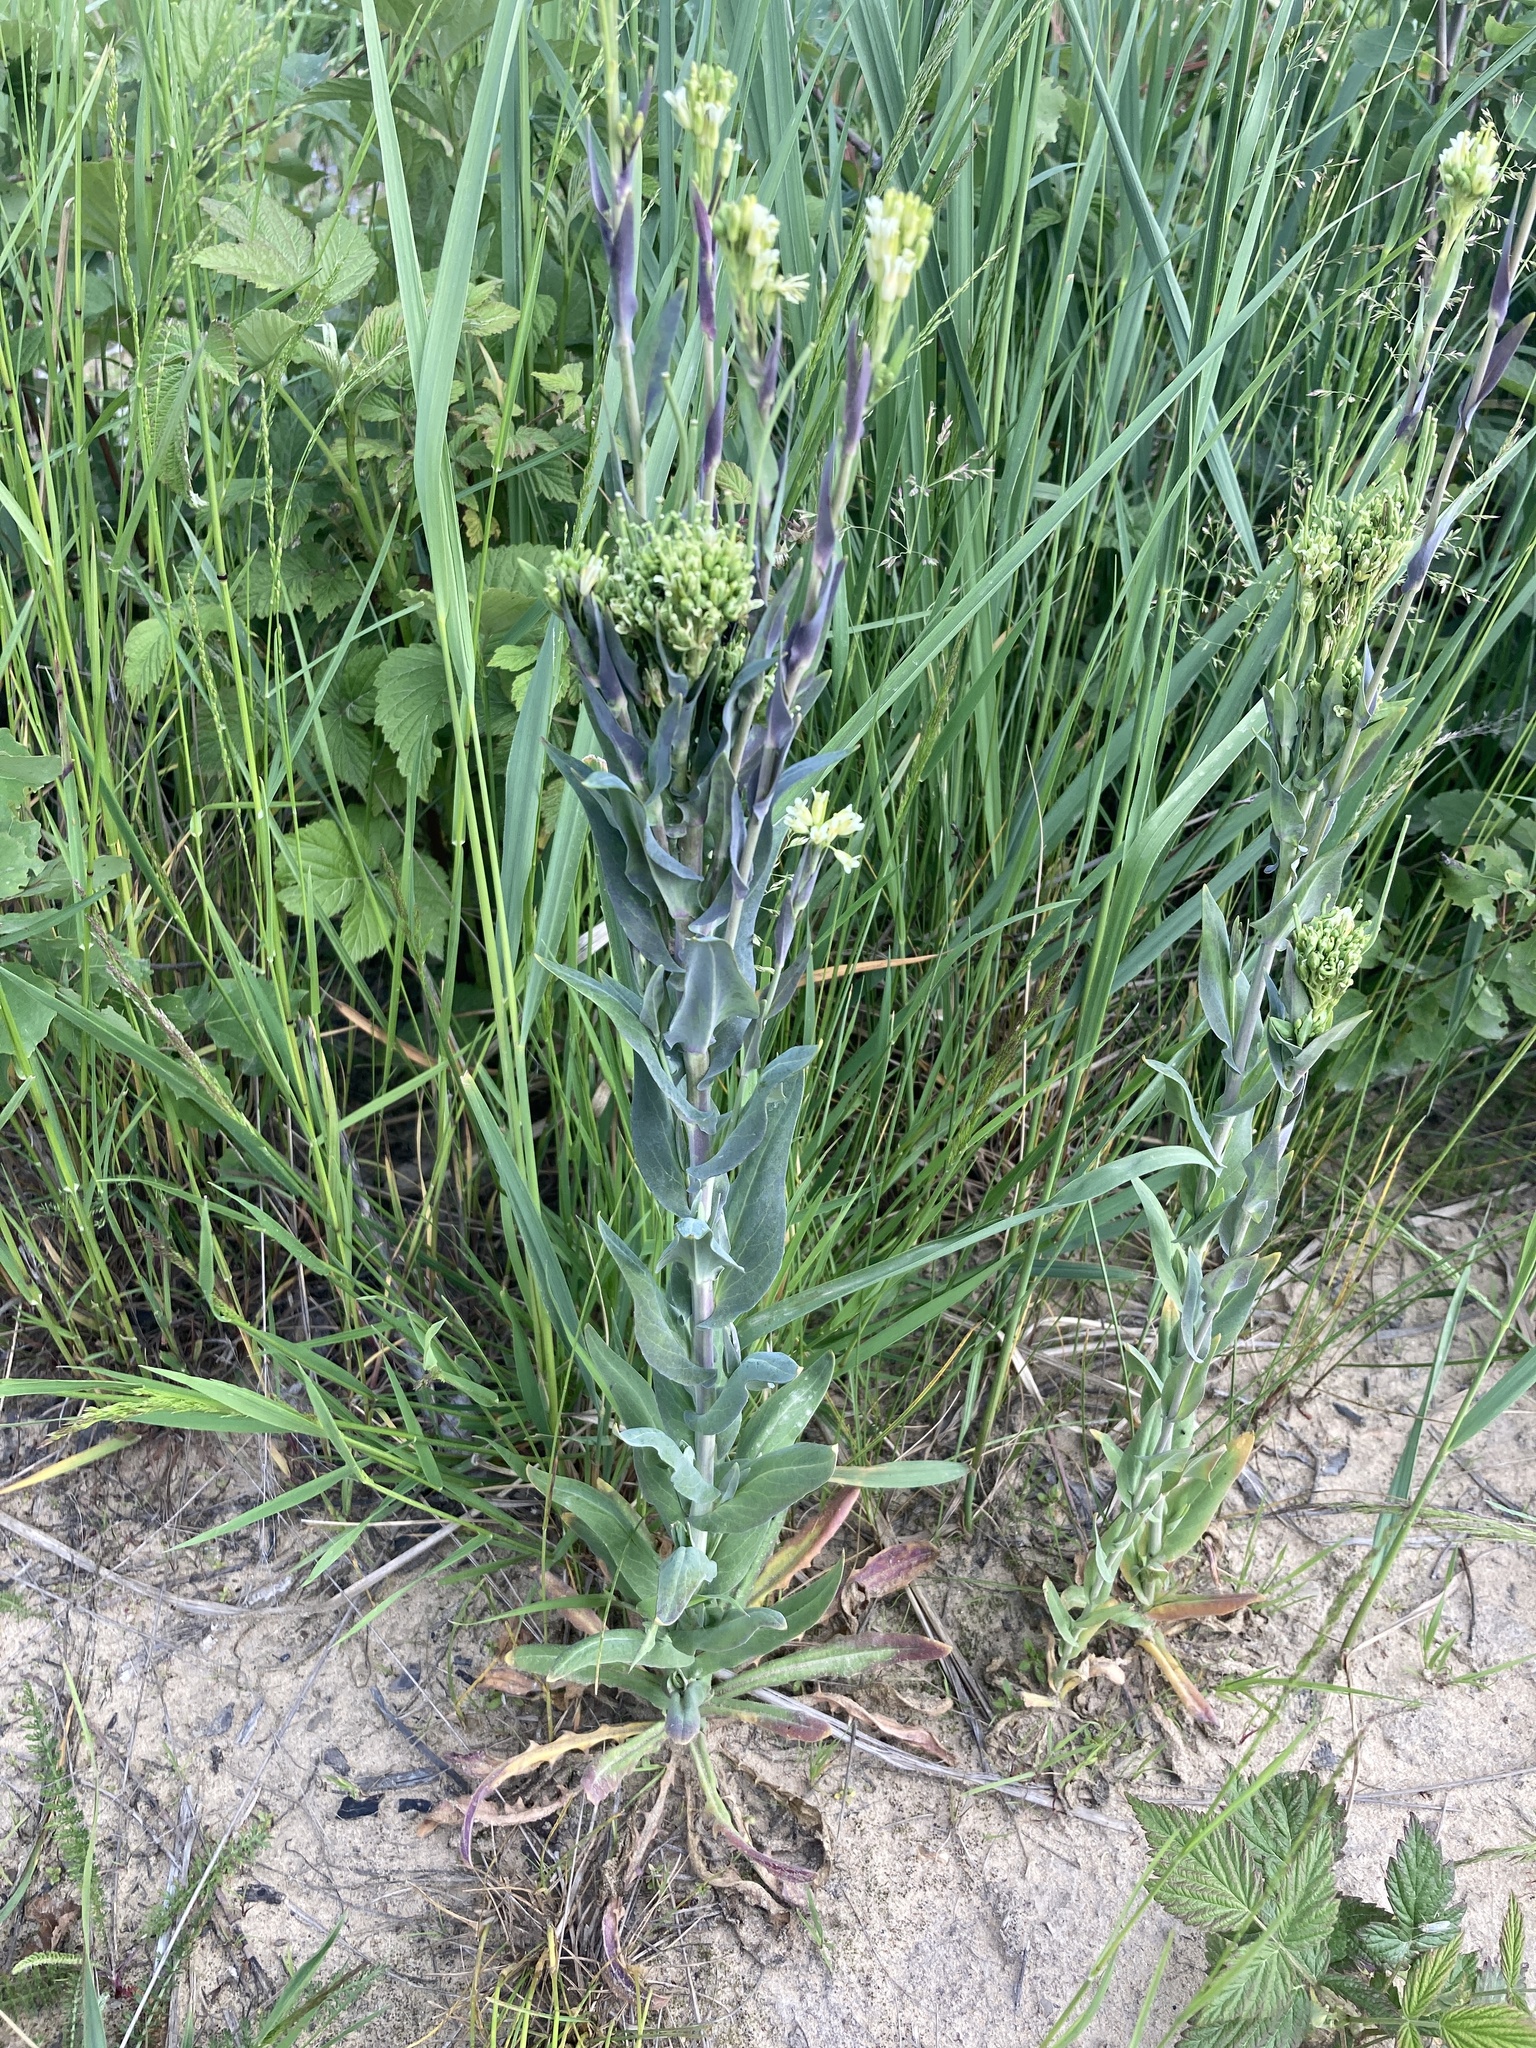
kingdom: Plantae
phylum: Tracheophyta
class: Magnoliopsida
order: Brassicales
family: Brassicaceae
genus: Turritis
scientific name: Turritis glabra
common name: Tower rockcress
